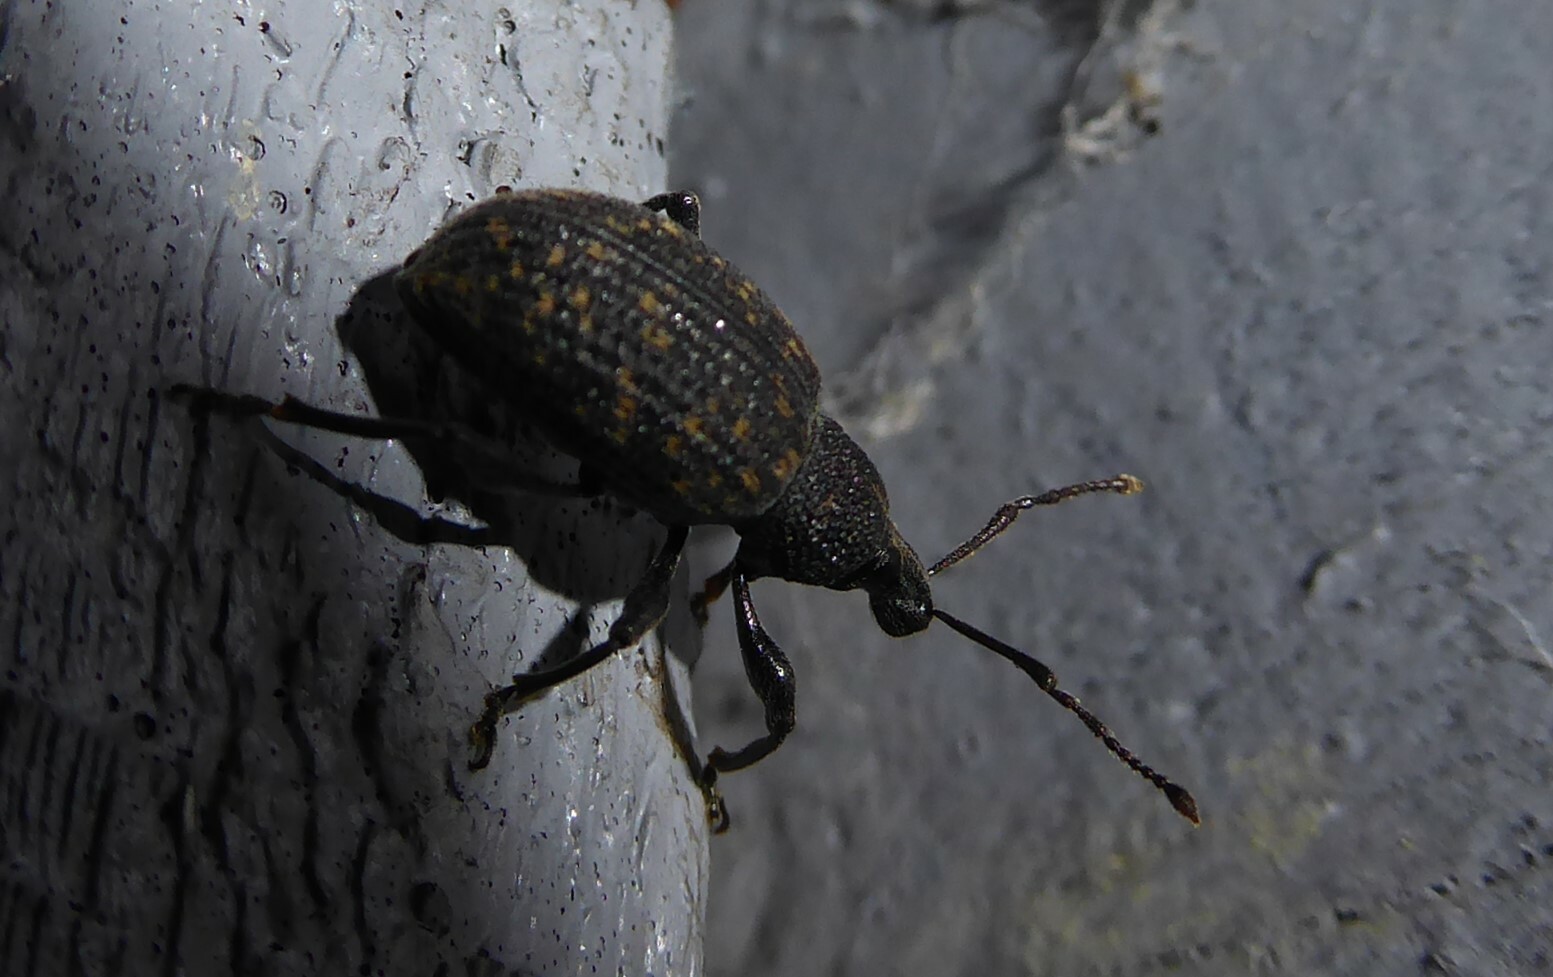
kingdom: Animalia
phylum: Arthropoda
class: Insecta
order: Coleoptera
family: Curculionidae
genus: Otiorhynchus
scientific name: Otiorhynchus sulcatus
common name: Black vine weevil
